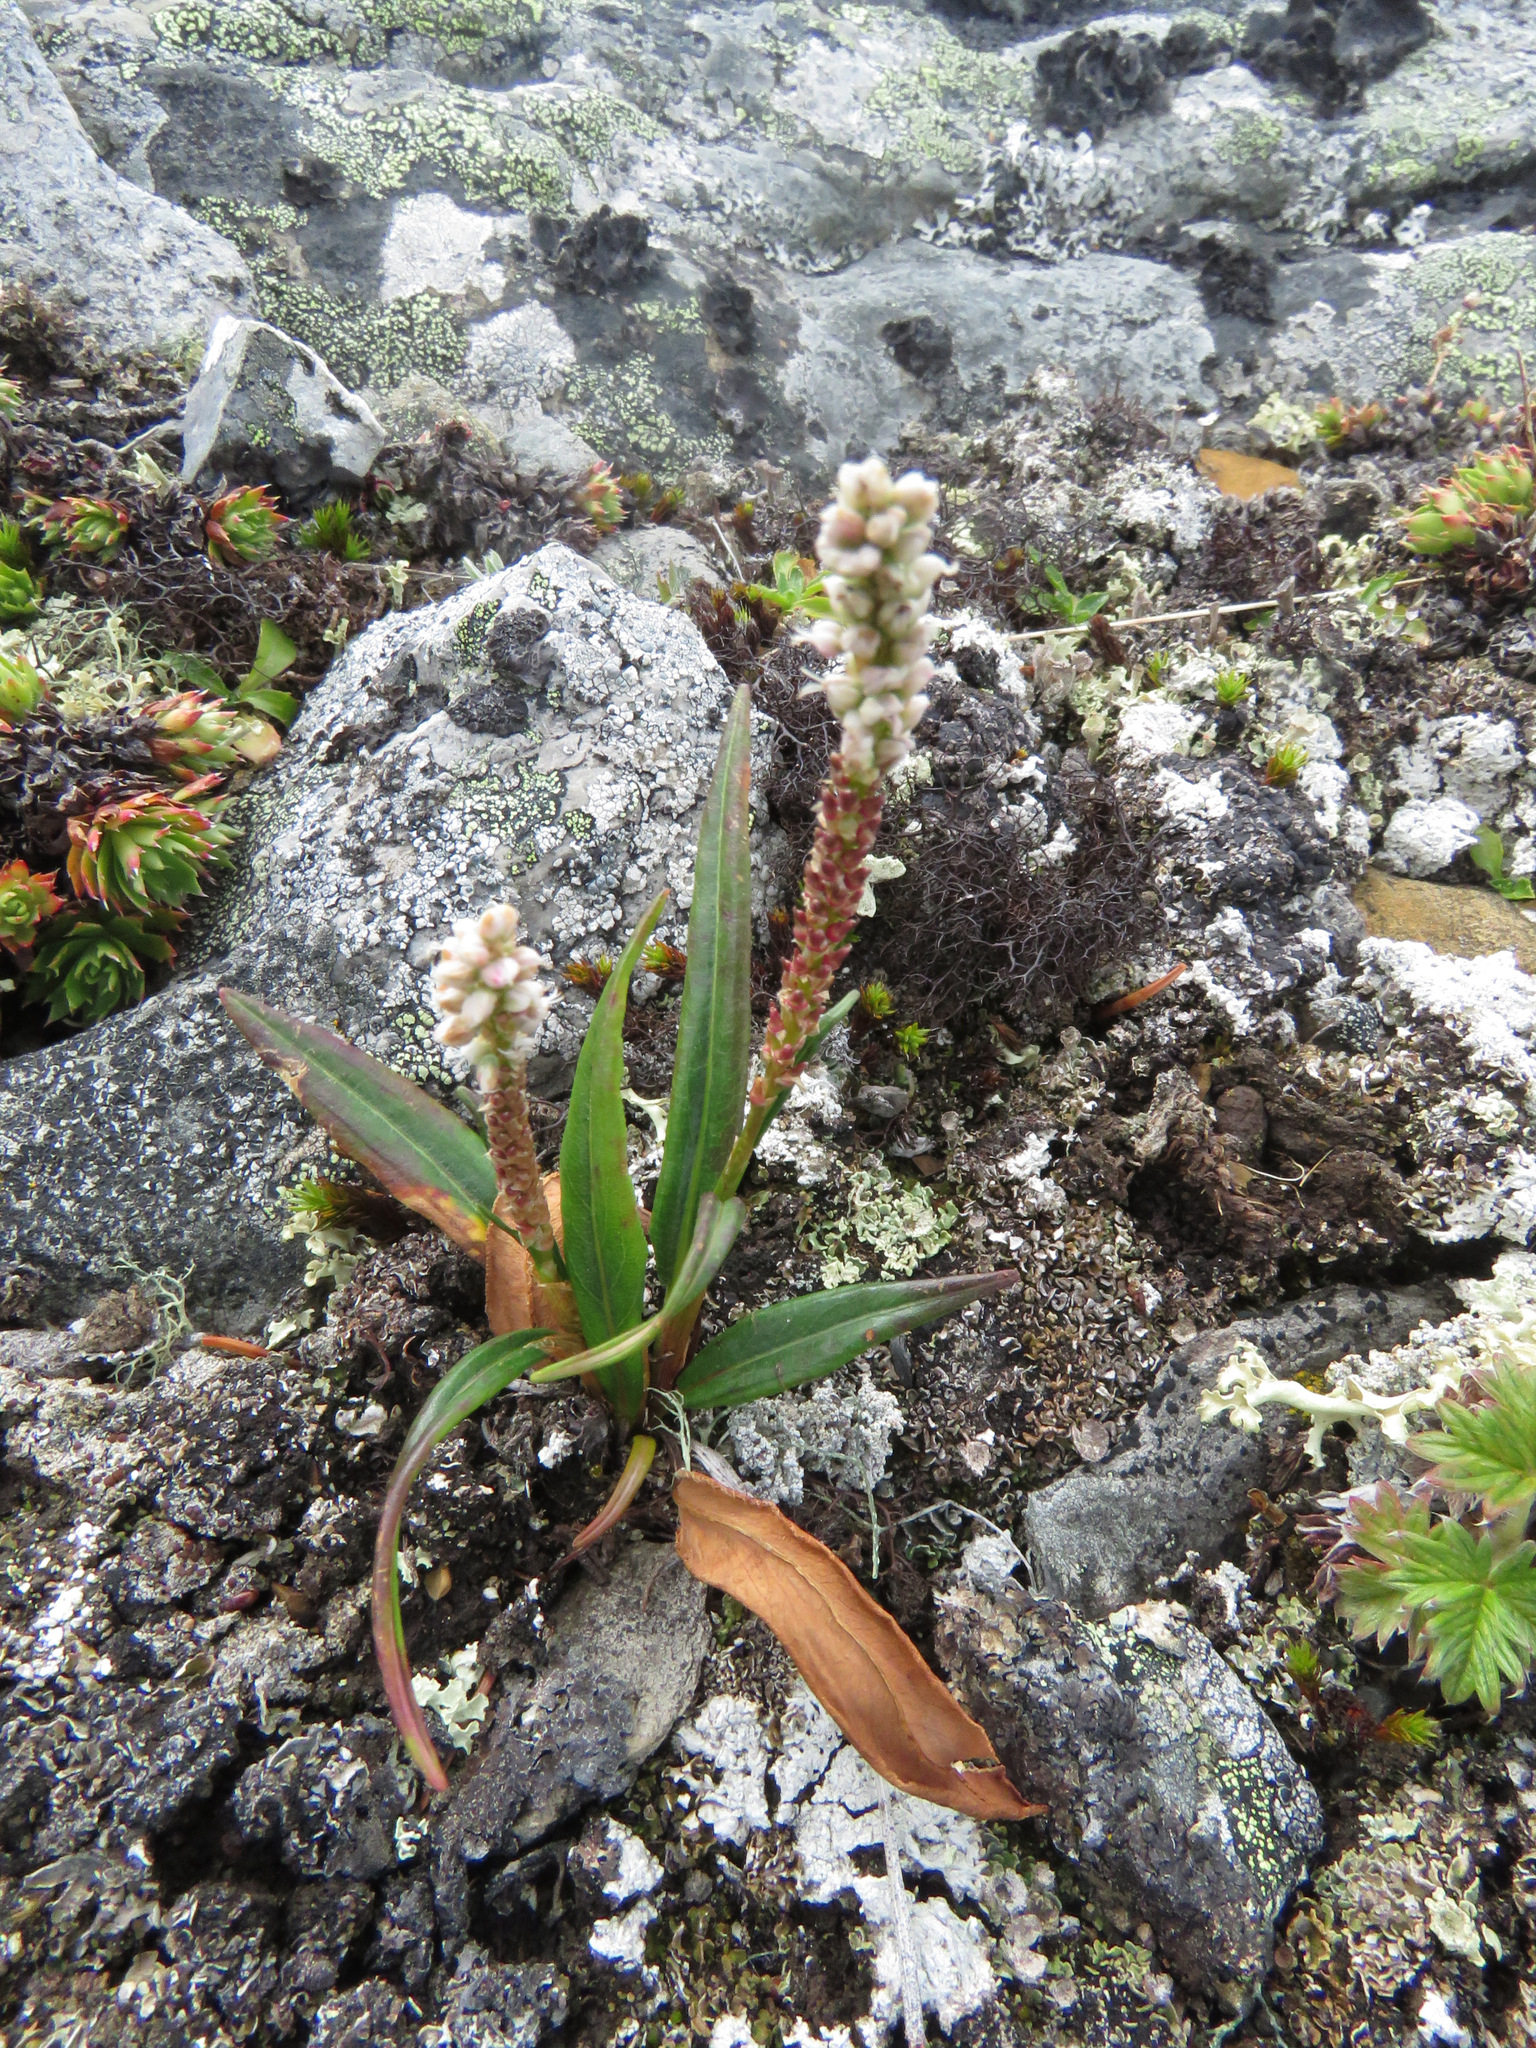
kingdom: Plantae
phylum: Tracheophyta
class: Magnoliopsida
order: Caryophyllales
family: Polygonaceae
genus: Bistorta
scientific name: Bistorta vivipara
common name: Alpine bistort
